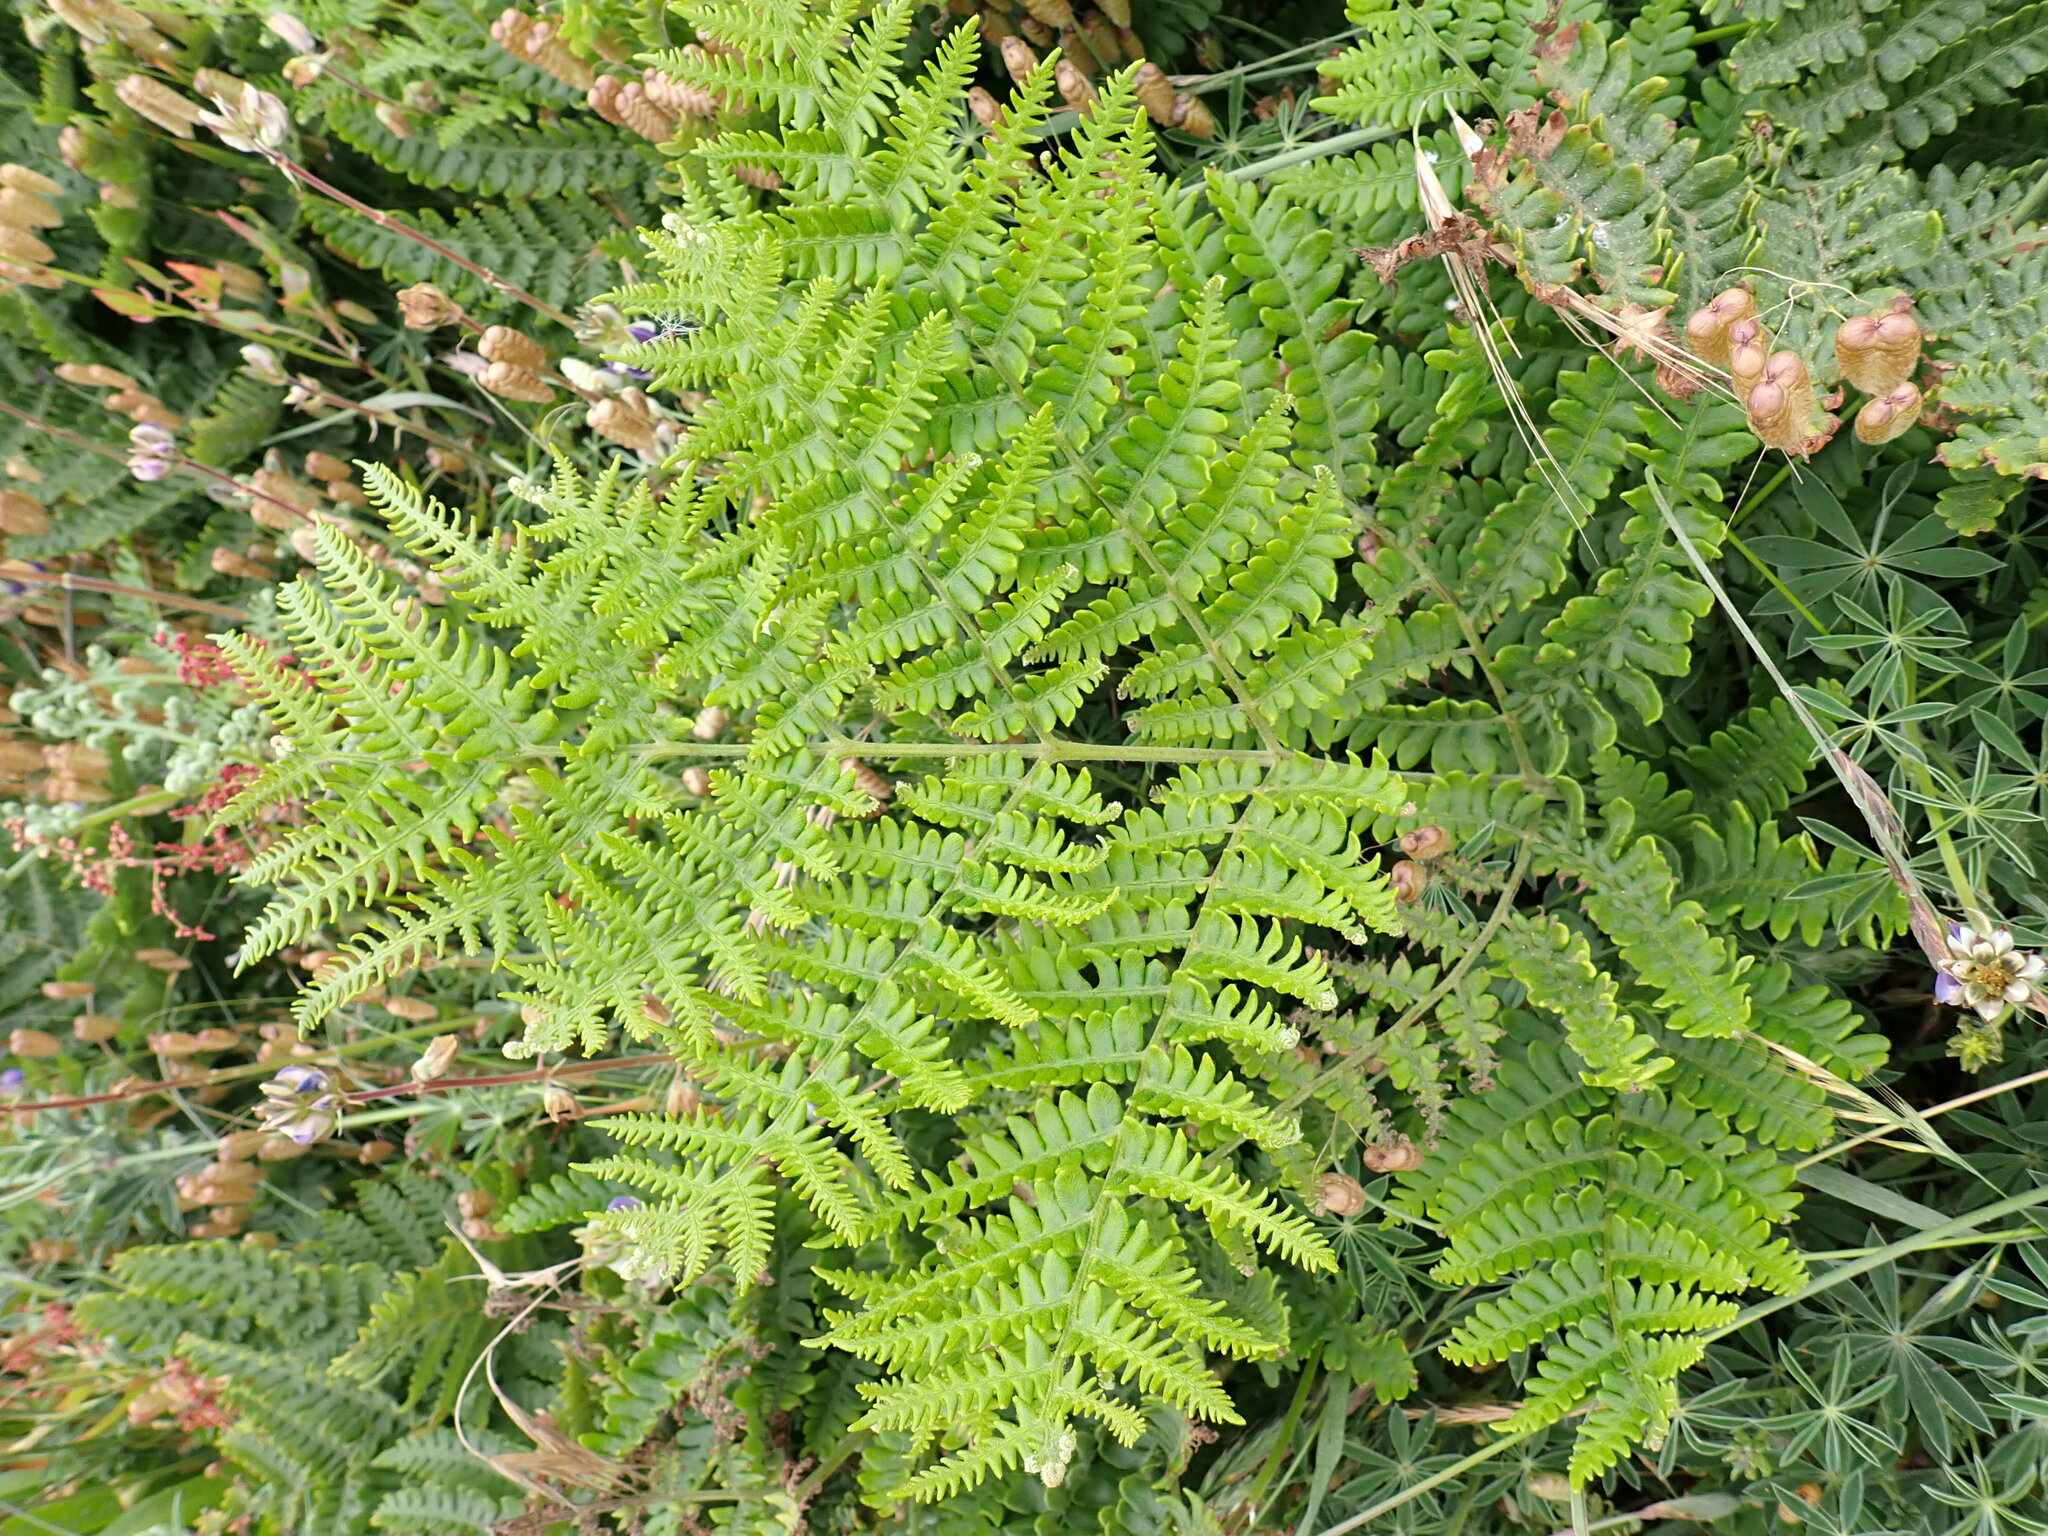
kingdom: Plantae
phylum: Tracheophyta
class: Polypodiopsida
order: Polypodiales
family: Dennstaedtiaceae
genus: Pteridium
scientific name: Pteridium aquilinum
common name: Bracken
